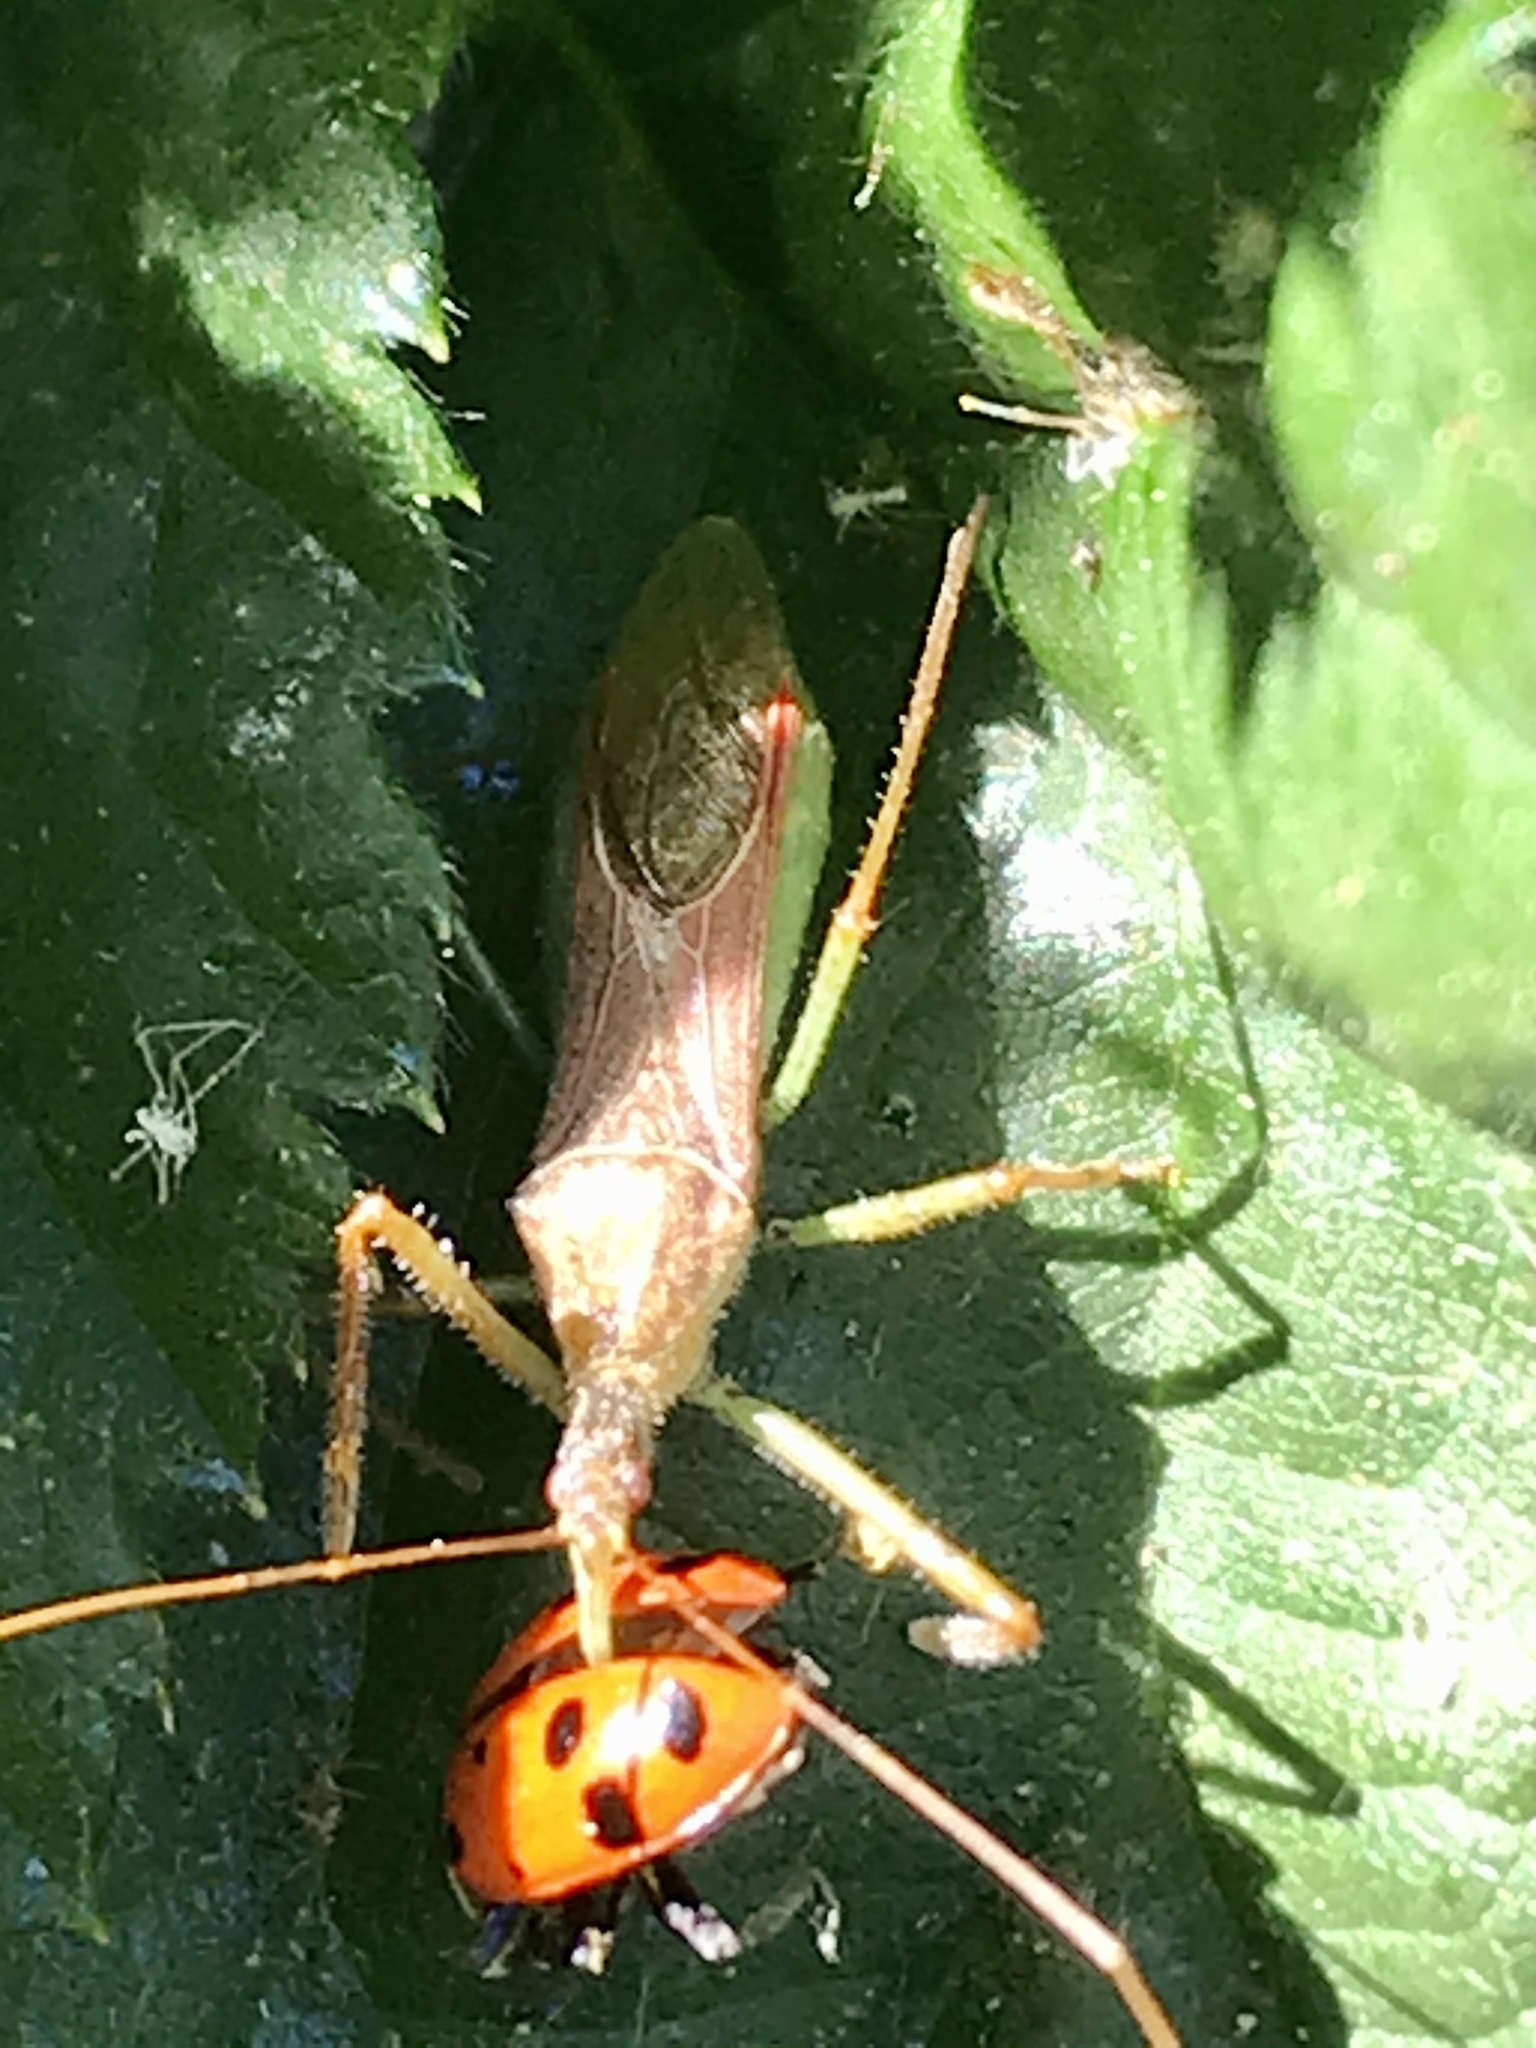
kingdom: Animalia
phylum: Arthropoda
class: Insecta
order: Hemiptera
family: Reduviidae
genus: Zelus
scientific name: Zelus renardii
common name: Assassin bug
